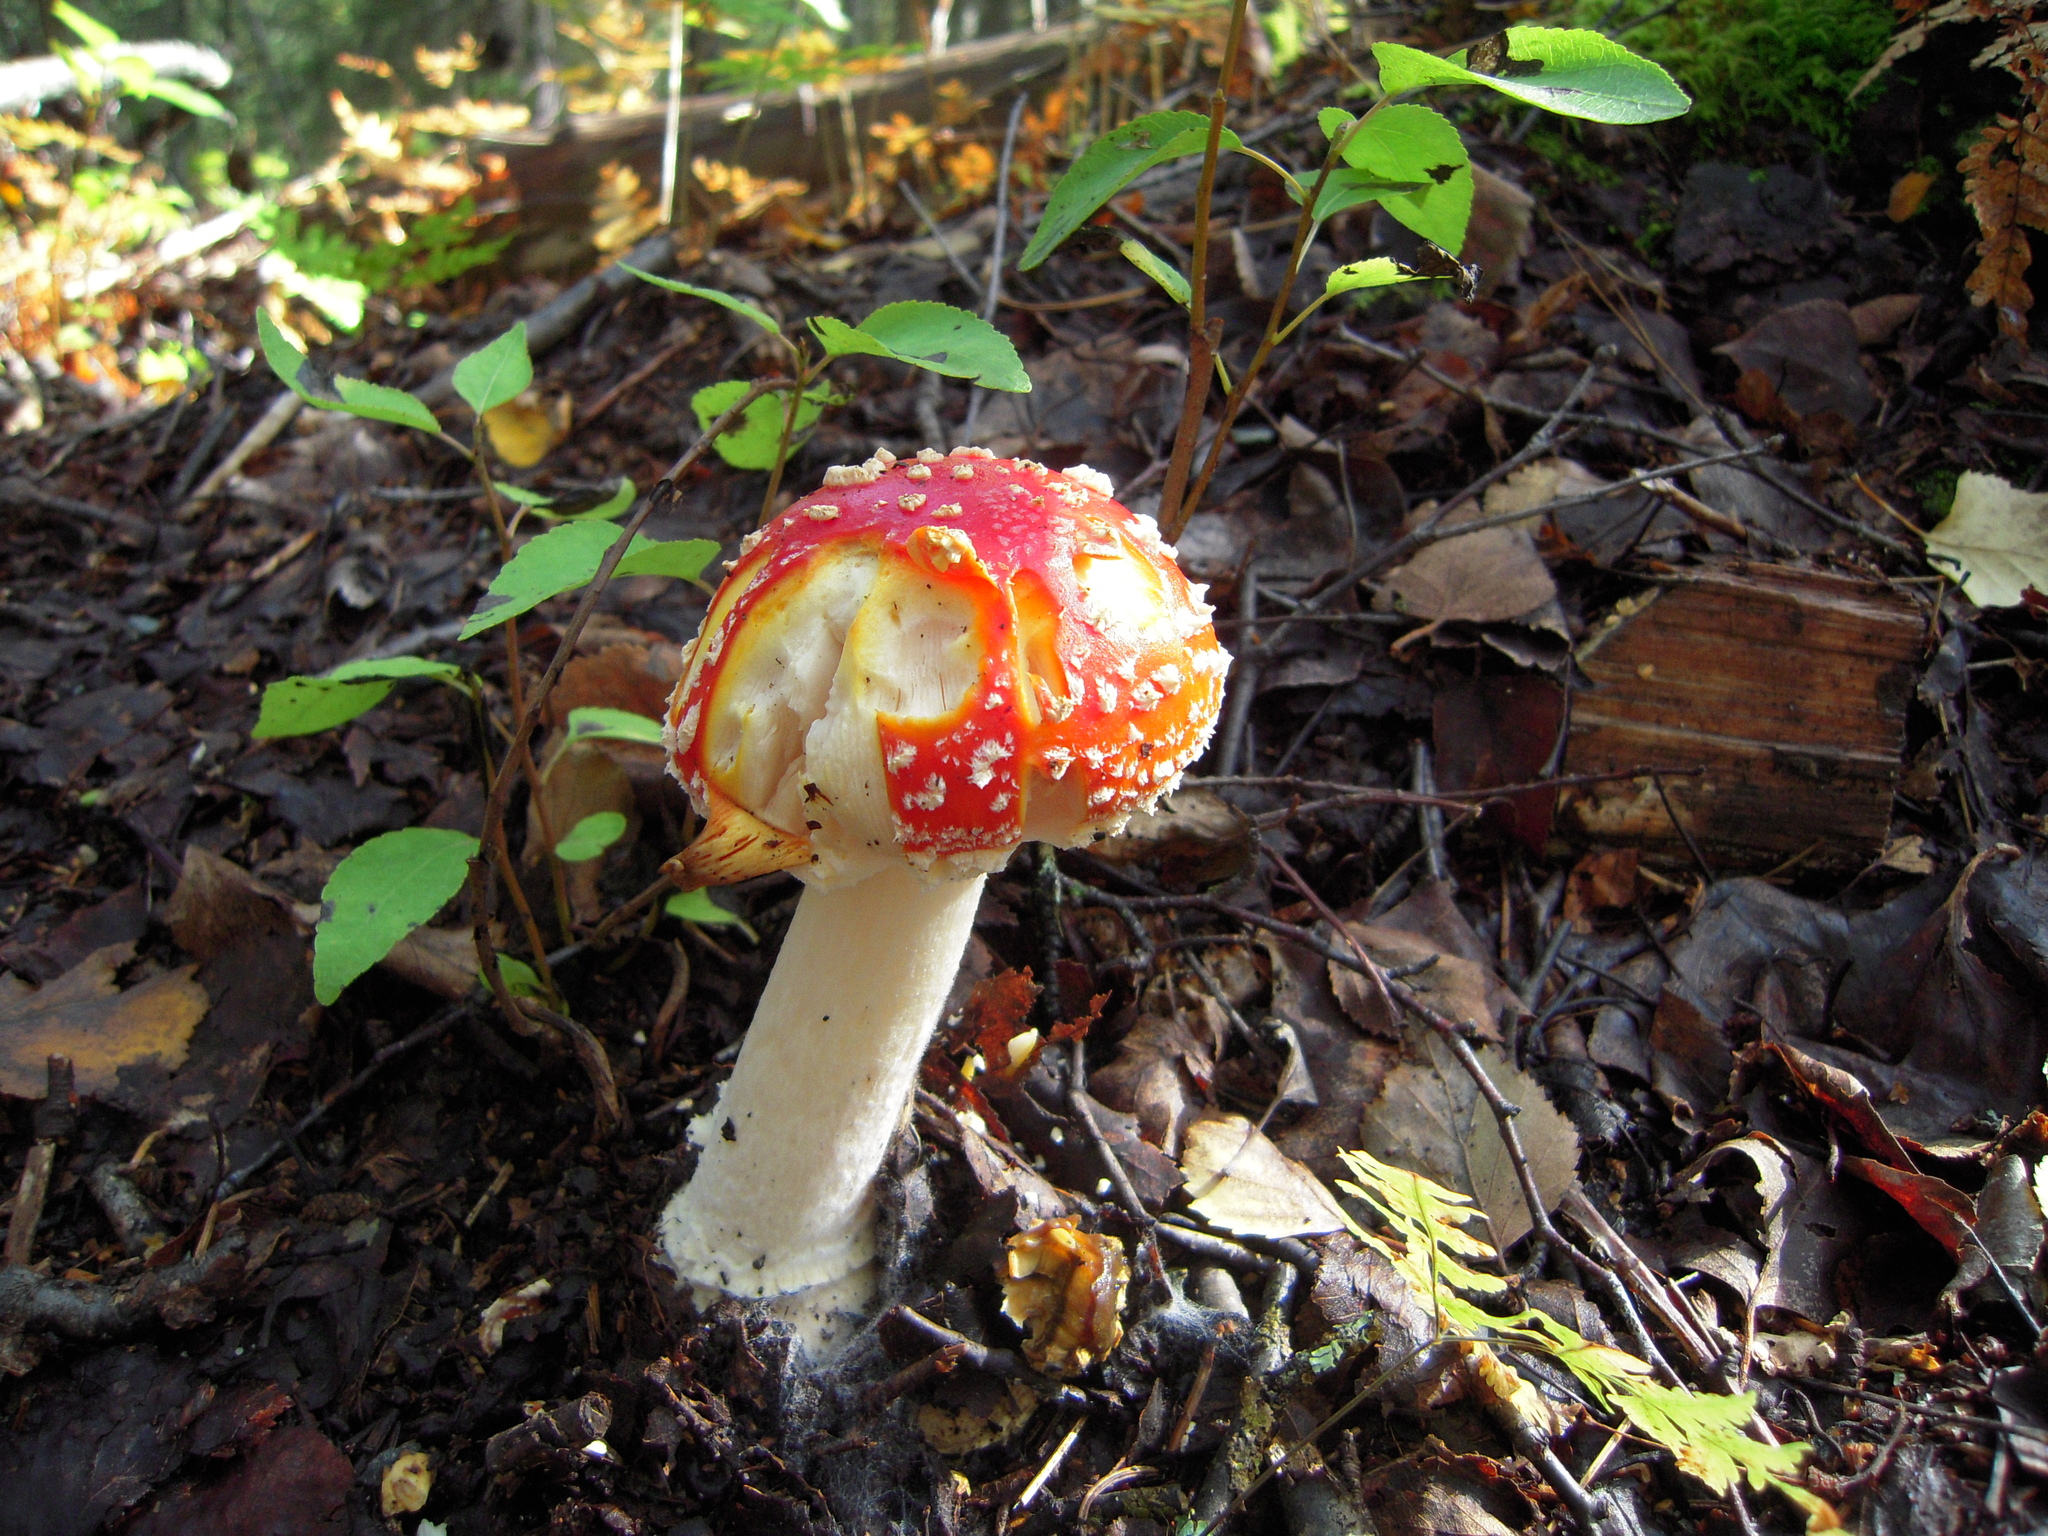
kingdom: Fungi
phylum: Basidiomycota
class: Agaricomycetes
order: Agaricales
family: Amanitaceae
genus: Amanita
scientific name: Amanita muscaria
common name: Fly agaric
